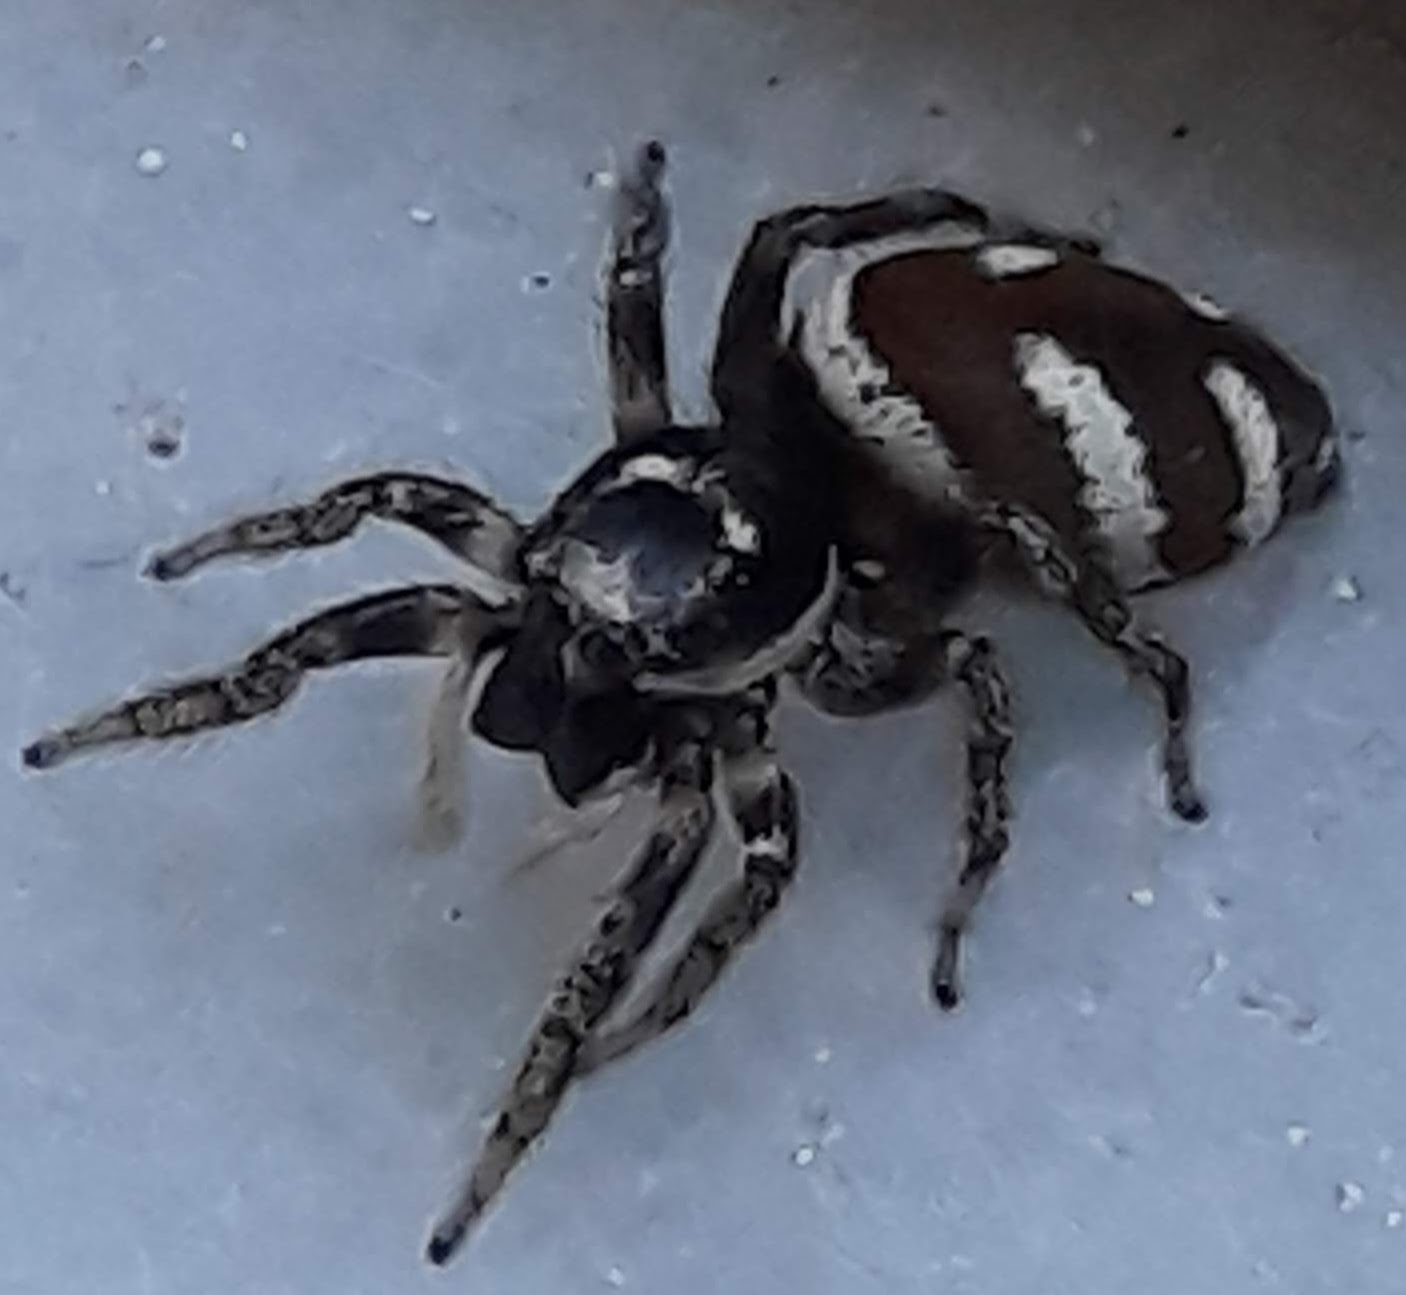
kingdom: Animalia
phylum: Arthropoda
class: Arachnida
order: Araneae
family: Salticidae
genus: Salticus
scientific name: Salticus scenicus
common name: Zebra jumper
